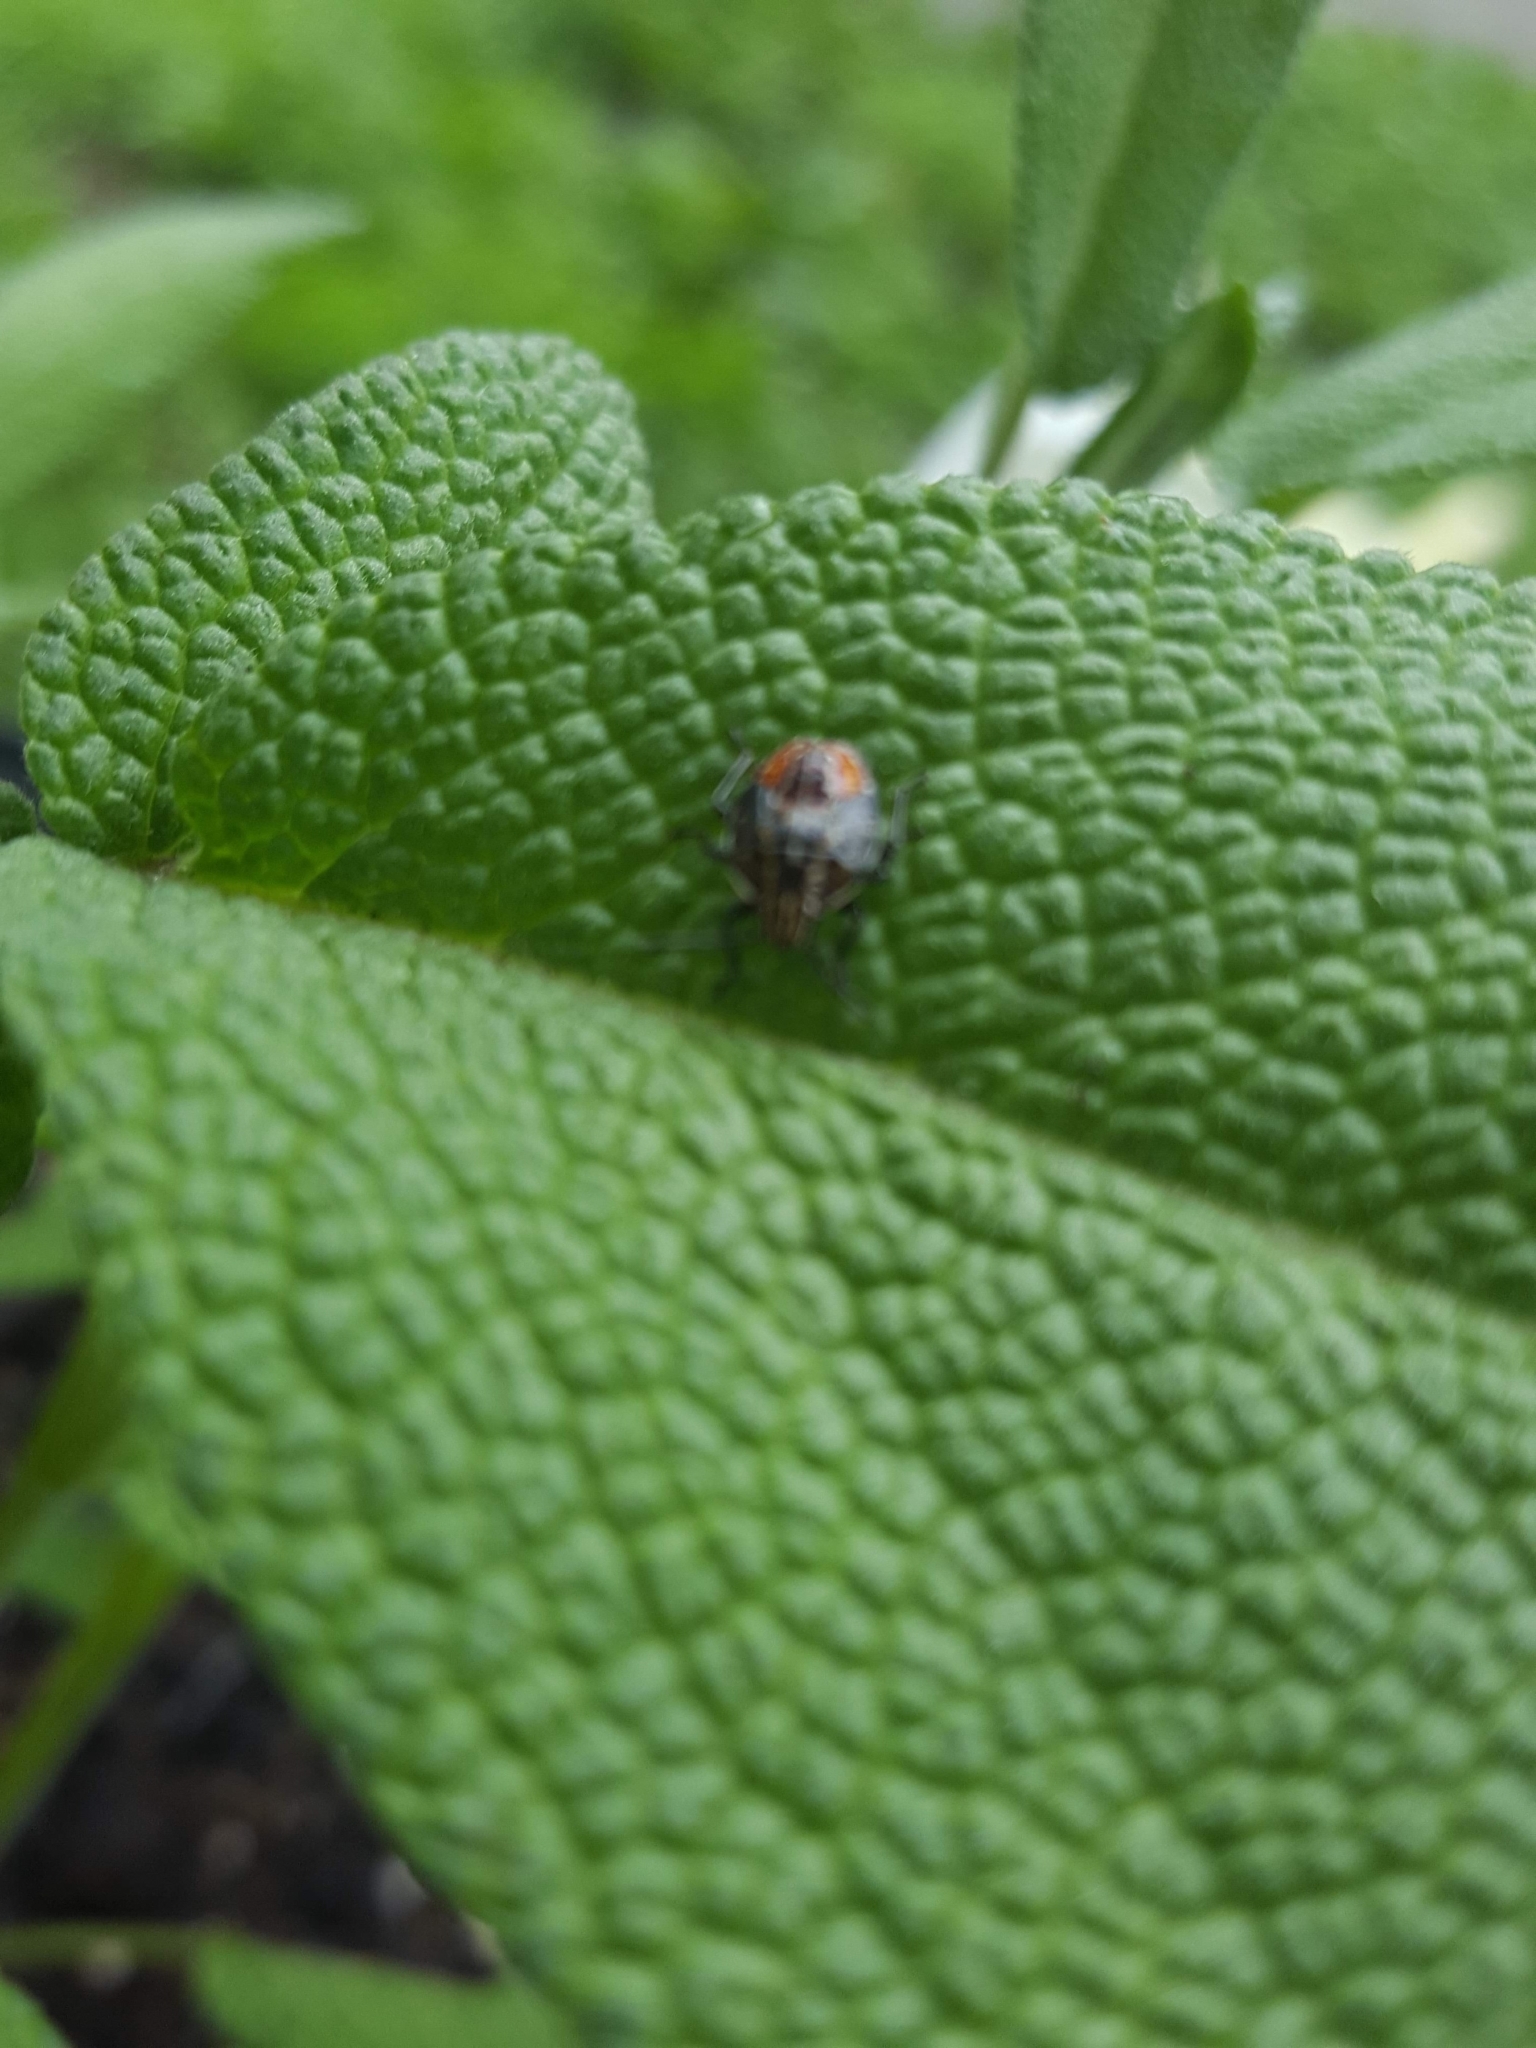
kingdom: Animalia
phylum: Arthropoda
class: Insecta
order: Hemiptera
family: Acanthosomatidae
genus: Elasmucha
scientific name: Elasmucha lateralis
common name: Shield bug
